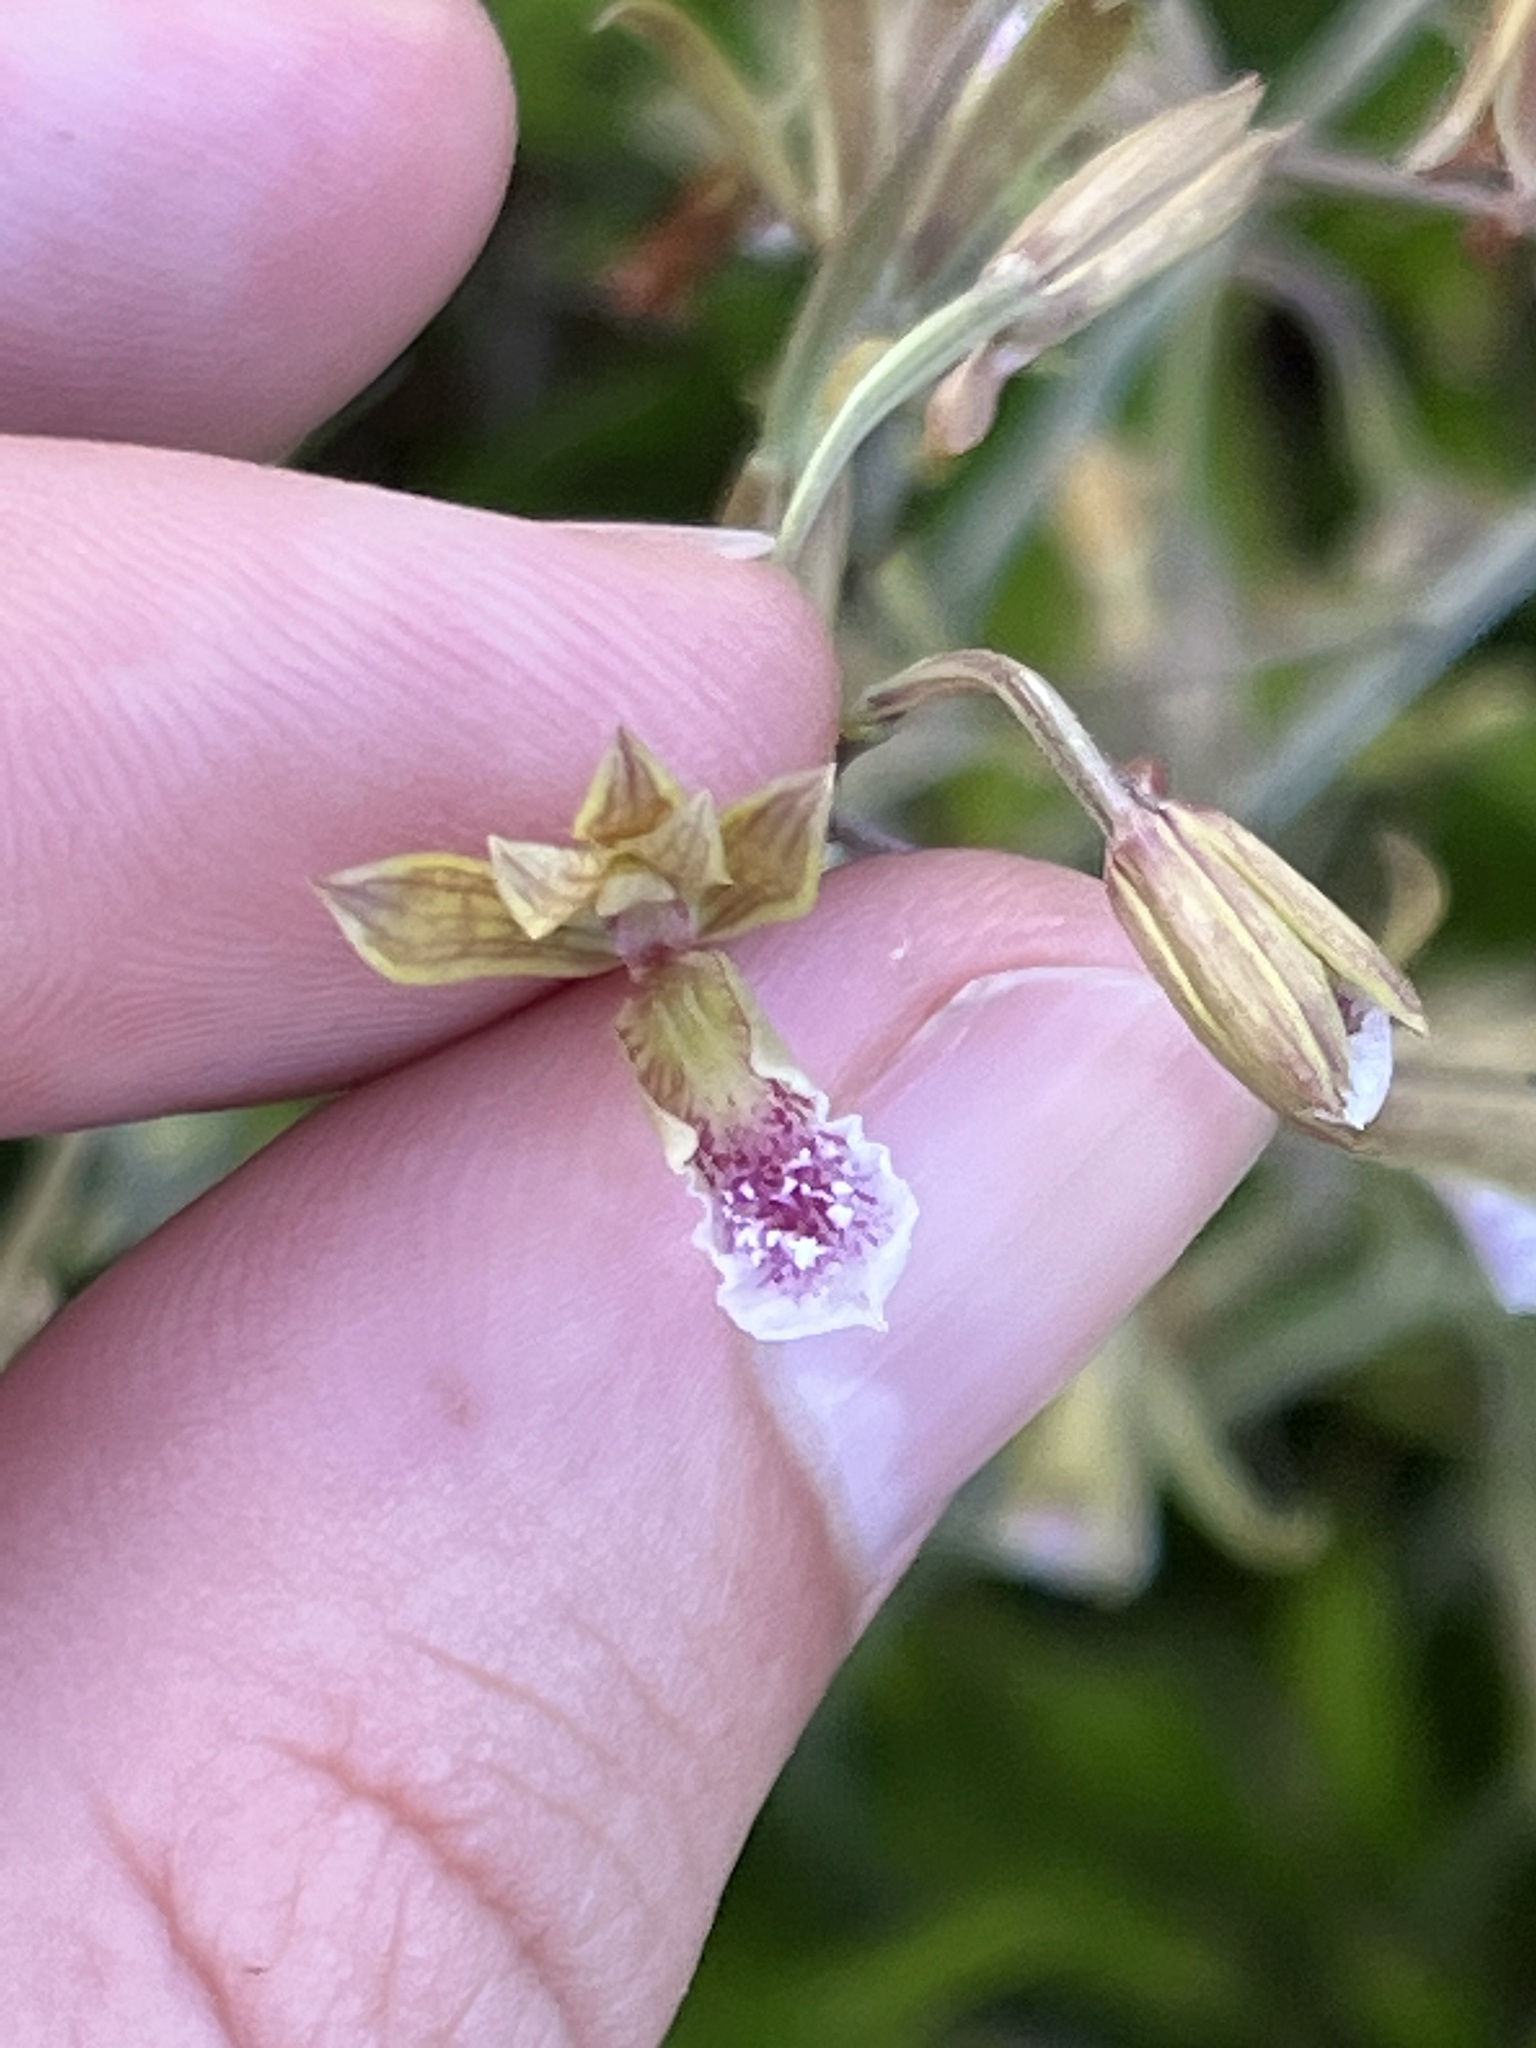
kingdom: Plantae
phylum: Tracheophyta
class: Liliopsida
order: Asparagales
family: Orchidaceae
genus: Eulophia
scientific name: Eulophia graminea
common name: Orchid
